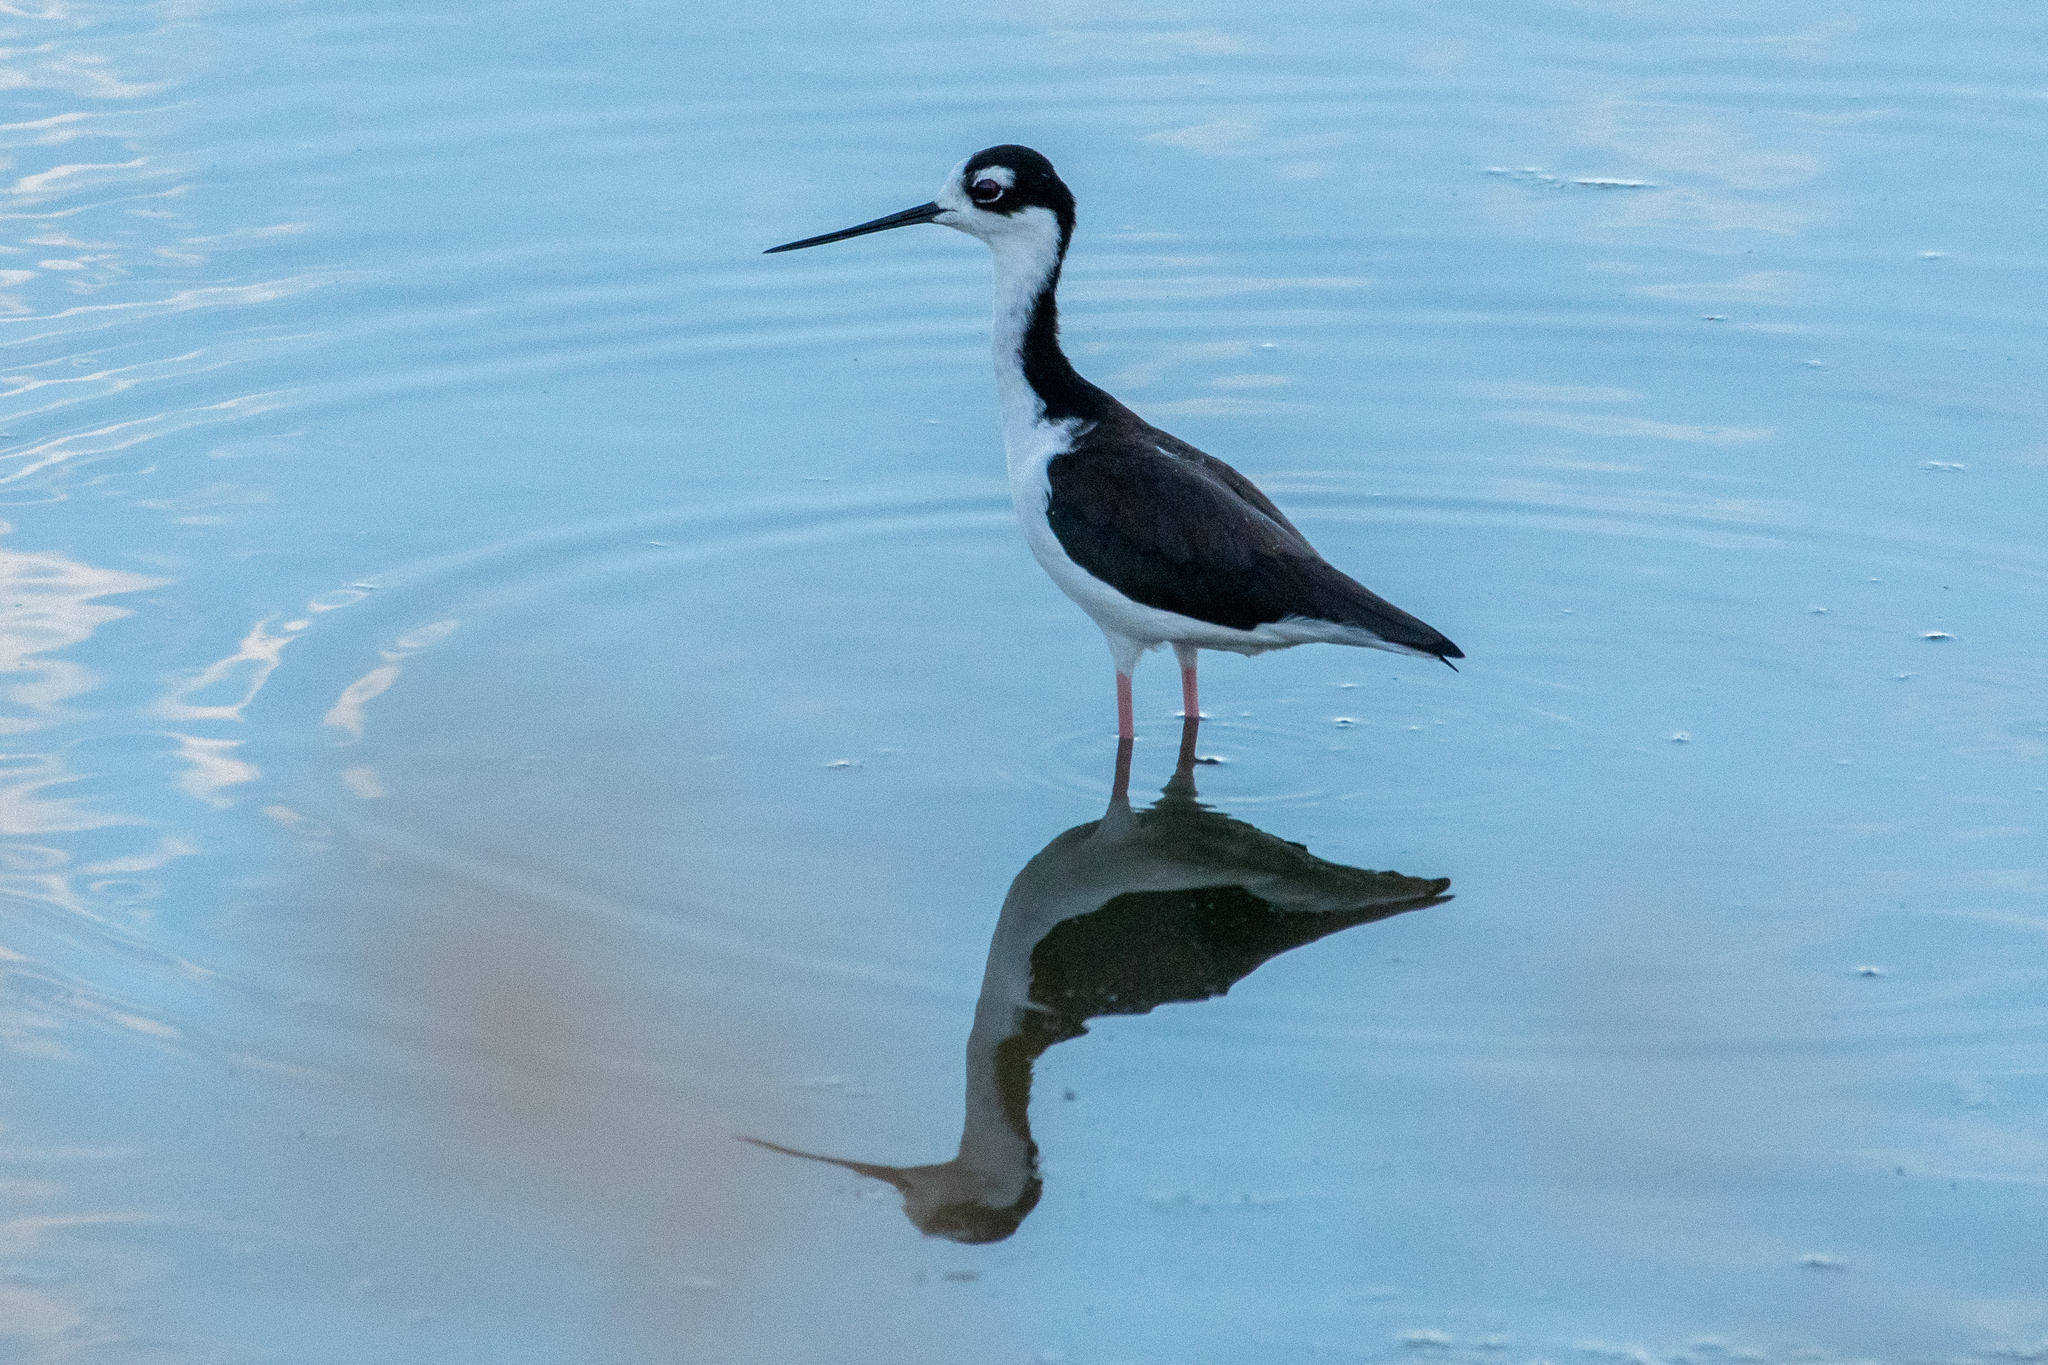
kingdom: Animalia
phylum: Chordata
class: Aves
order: Charadriiformes
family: Recurvirostridae
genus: Himantopus
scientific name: Himantopus mexicanus
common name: Black-necked stilt
